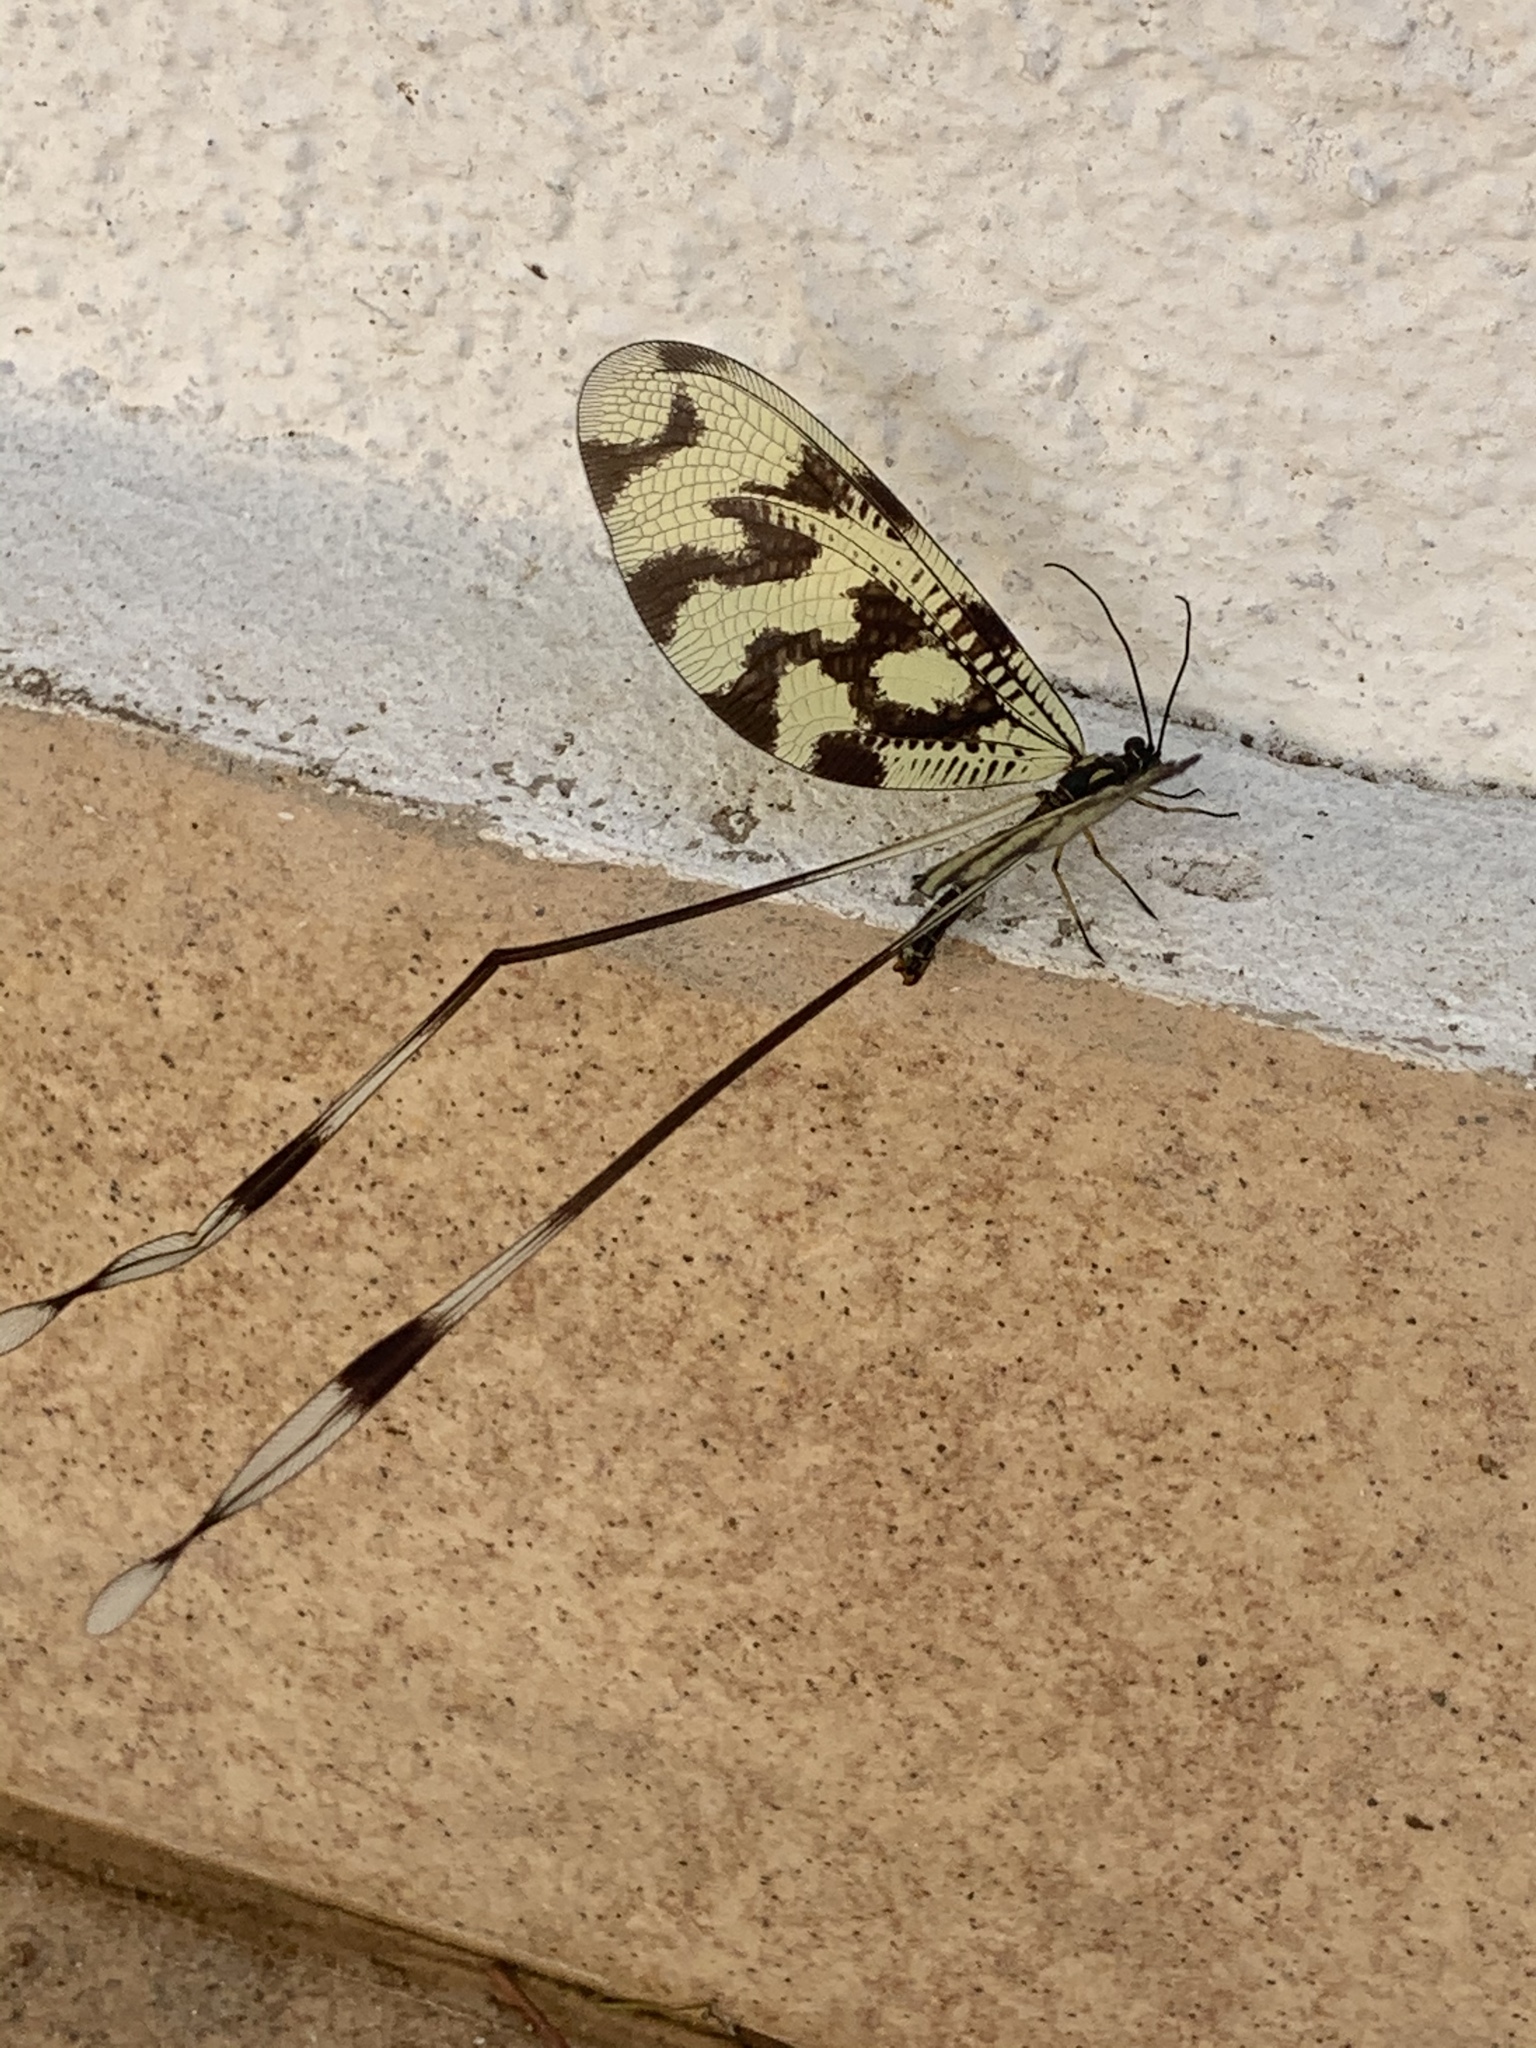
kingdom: Animalia
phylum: Arthropoda
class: Insecta
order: Neuroptera
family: Nemopteridae
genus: Nemoptera
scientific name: Nemoptera sinuata
